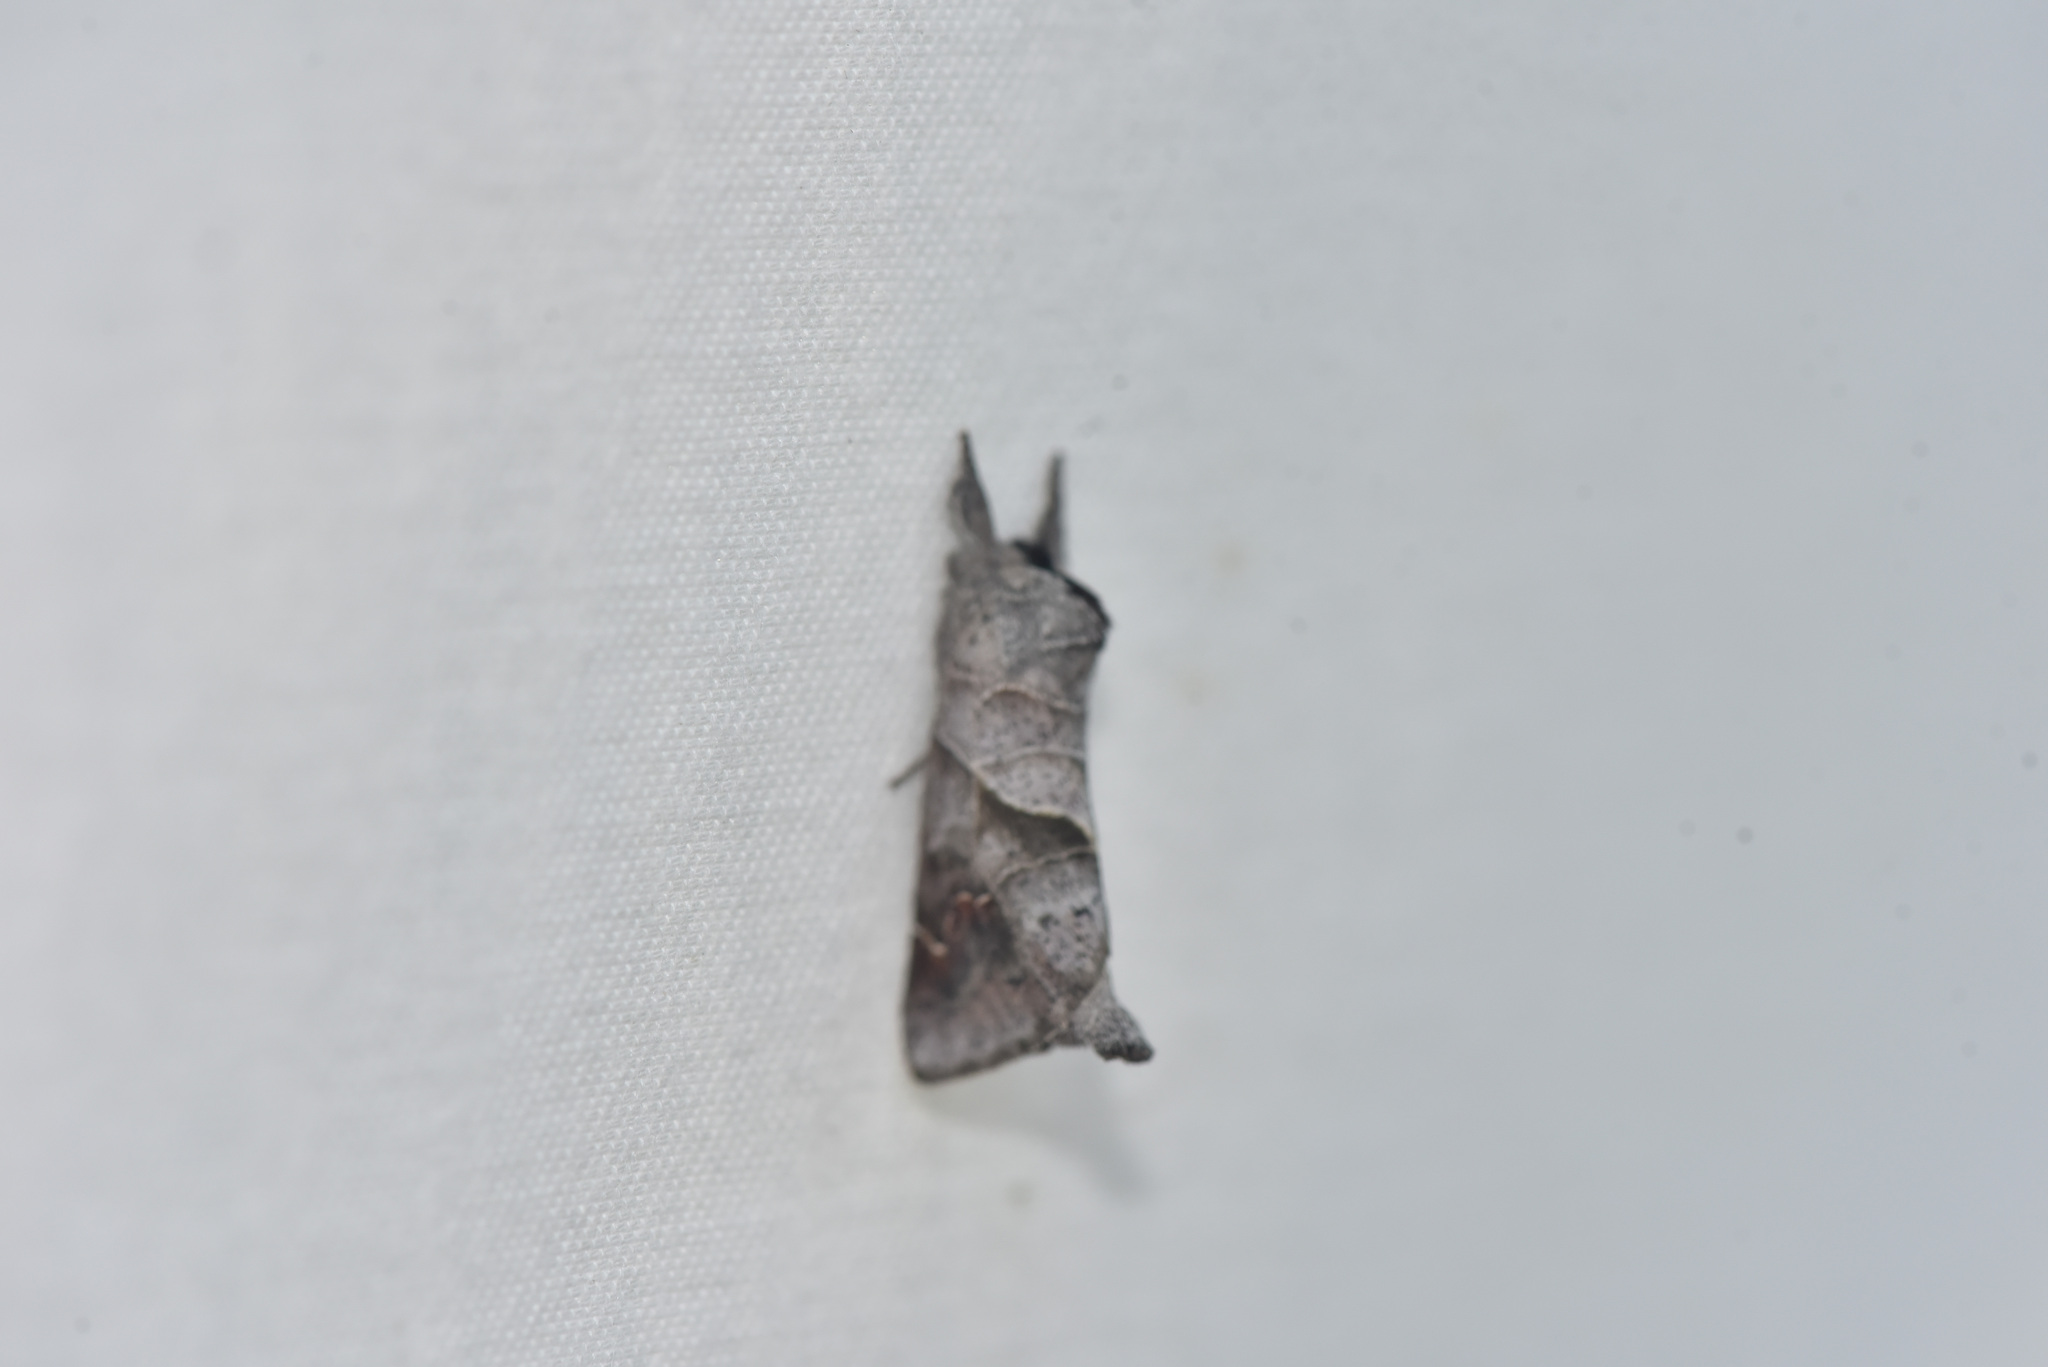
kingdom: Animalia
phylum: Arthropoda
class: Insecta
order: Lepidoptera
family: Notodontidae
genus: Clostera
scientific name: Clostera apicalis
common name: Apical prominent
